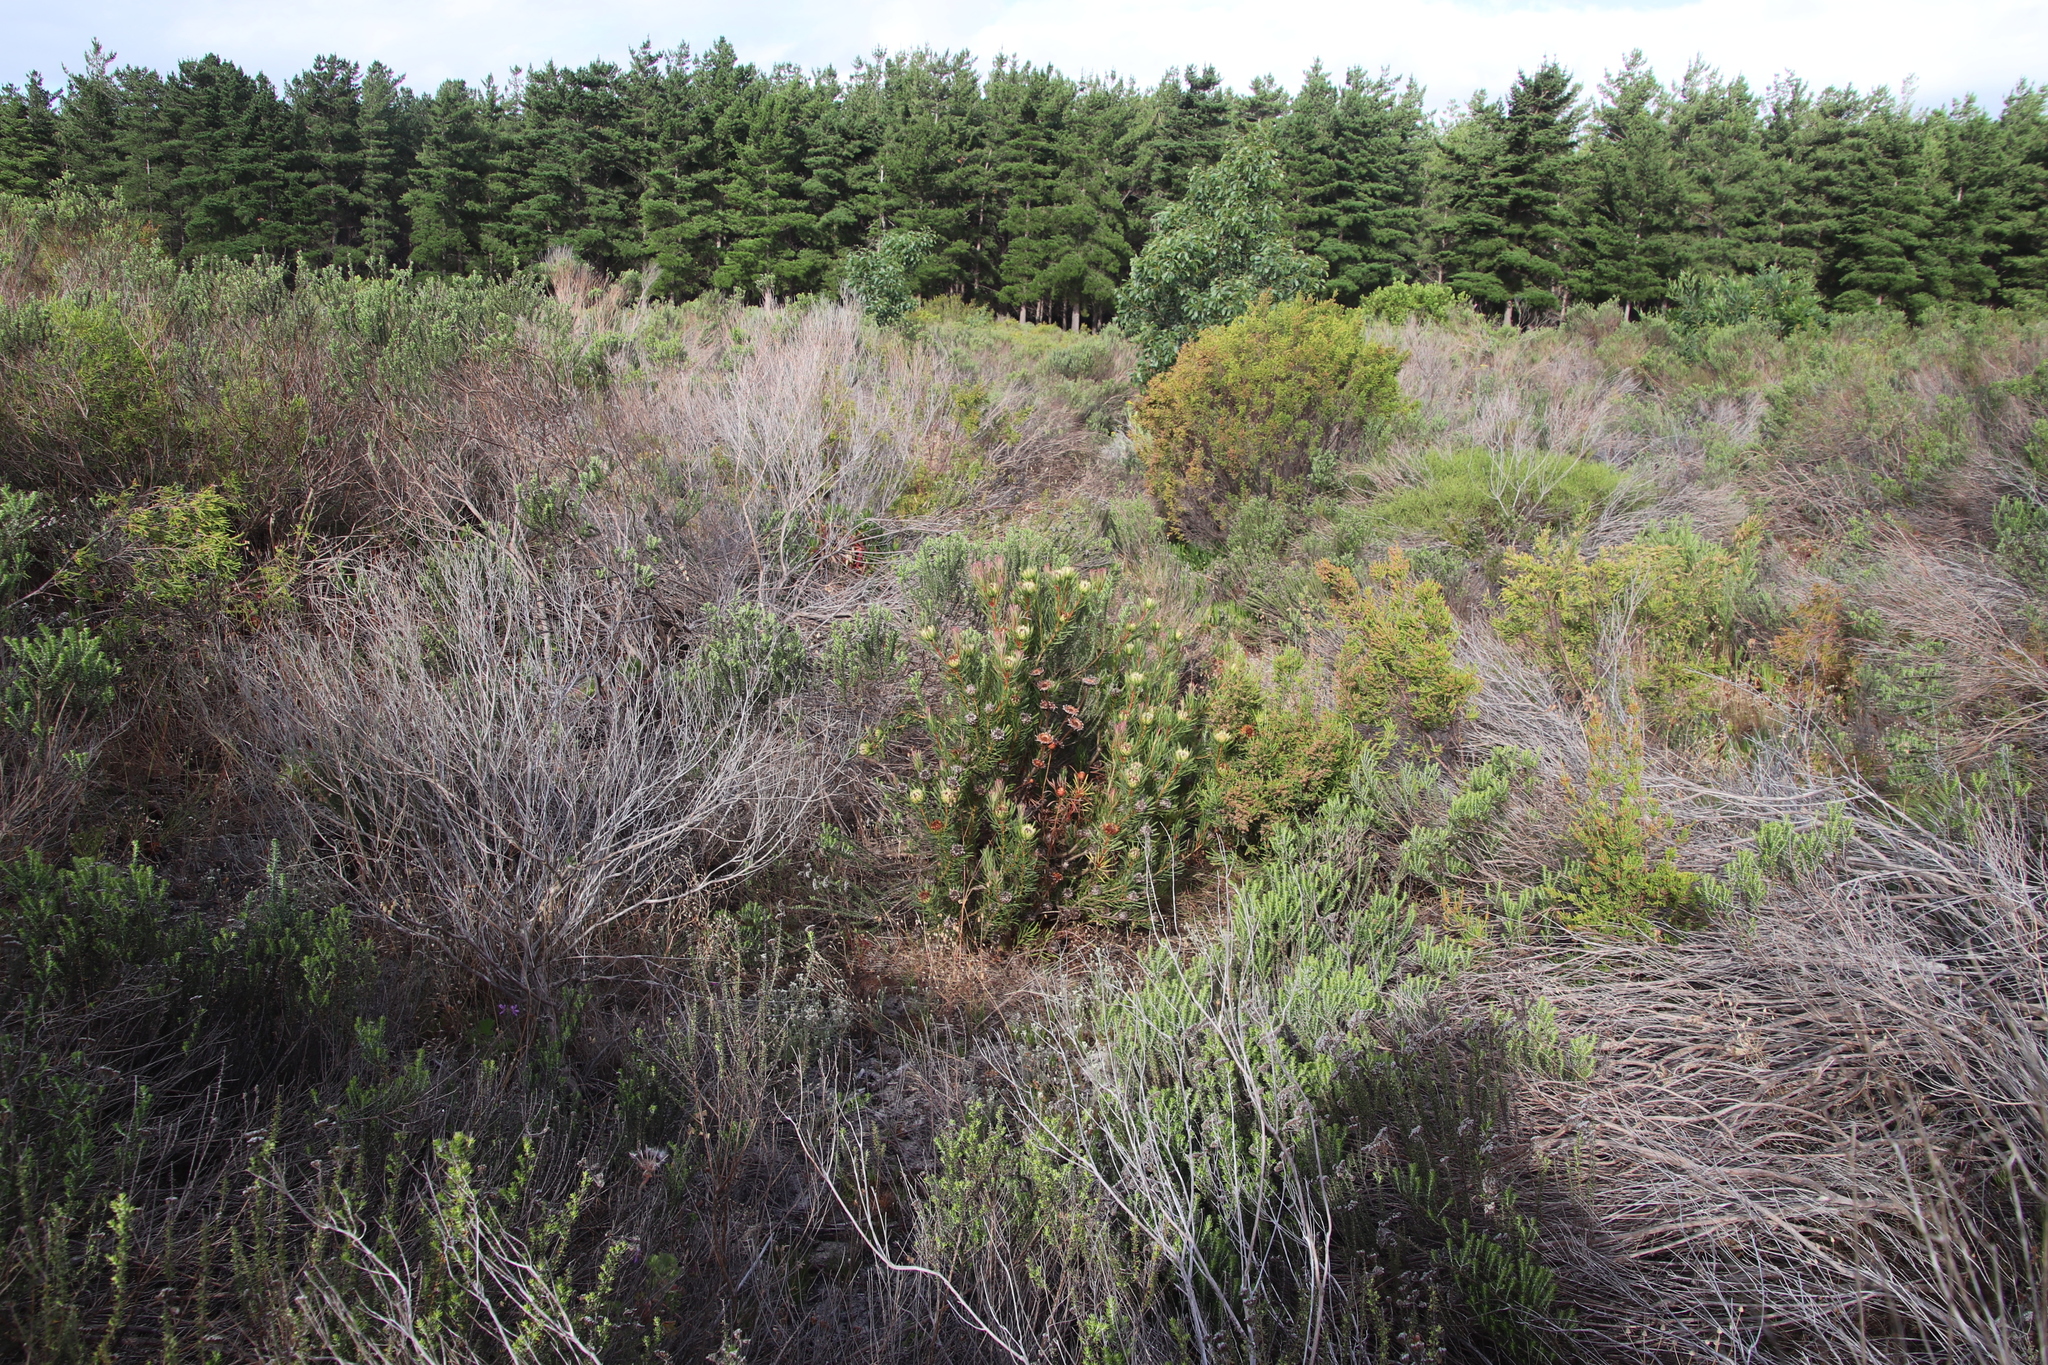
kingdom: Plantae
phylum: Tracheophyta
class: Magnoliopsida
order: Proteales
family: Proteaceae
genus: Protea
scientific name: Protea scolymocephala
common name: Thistle sugarbush
